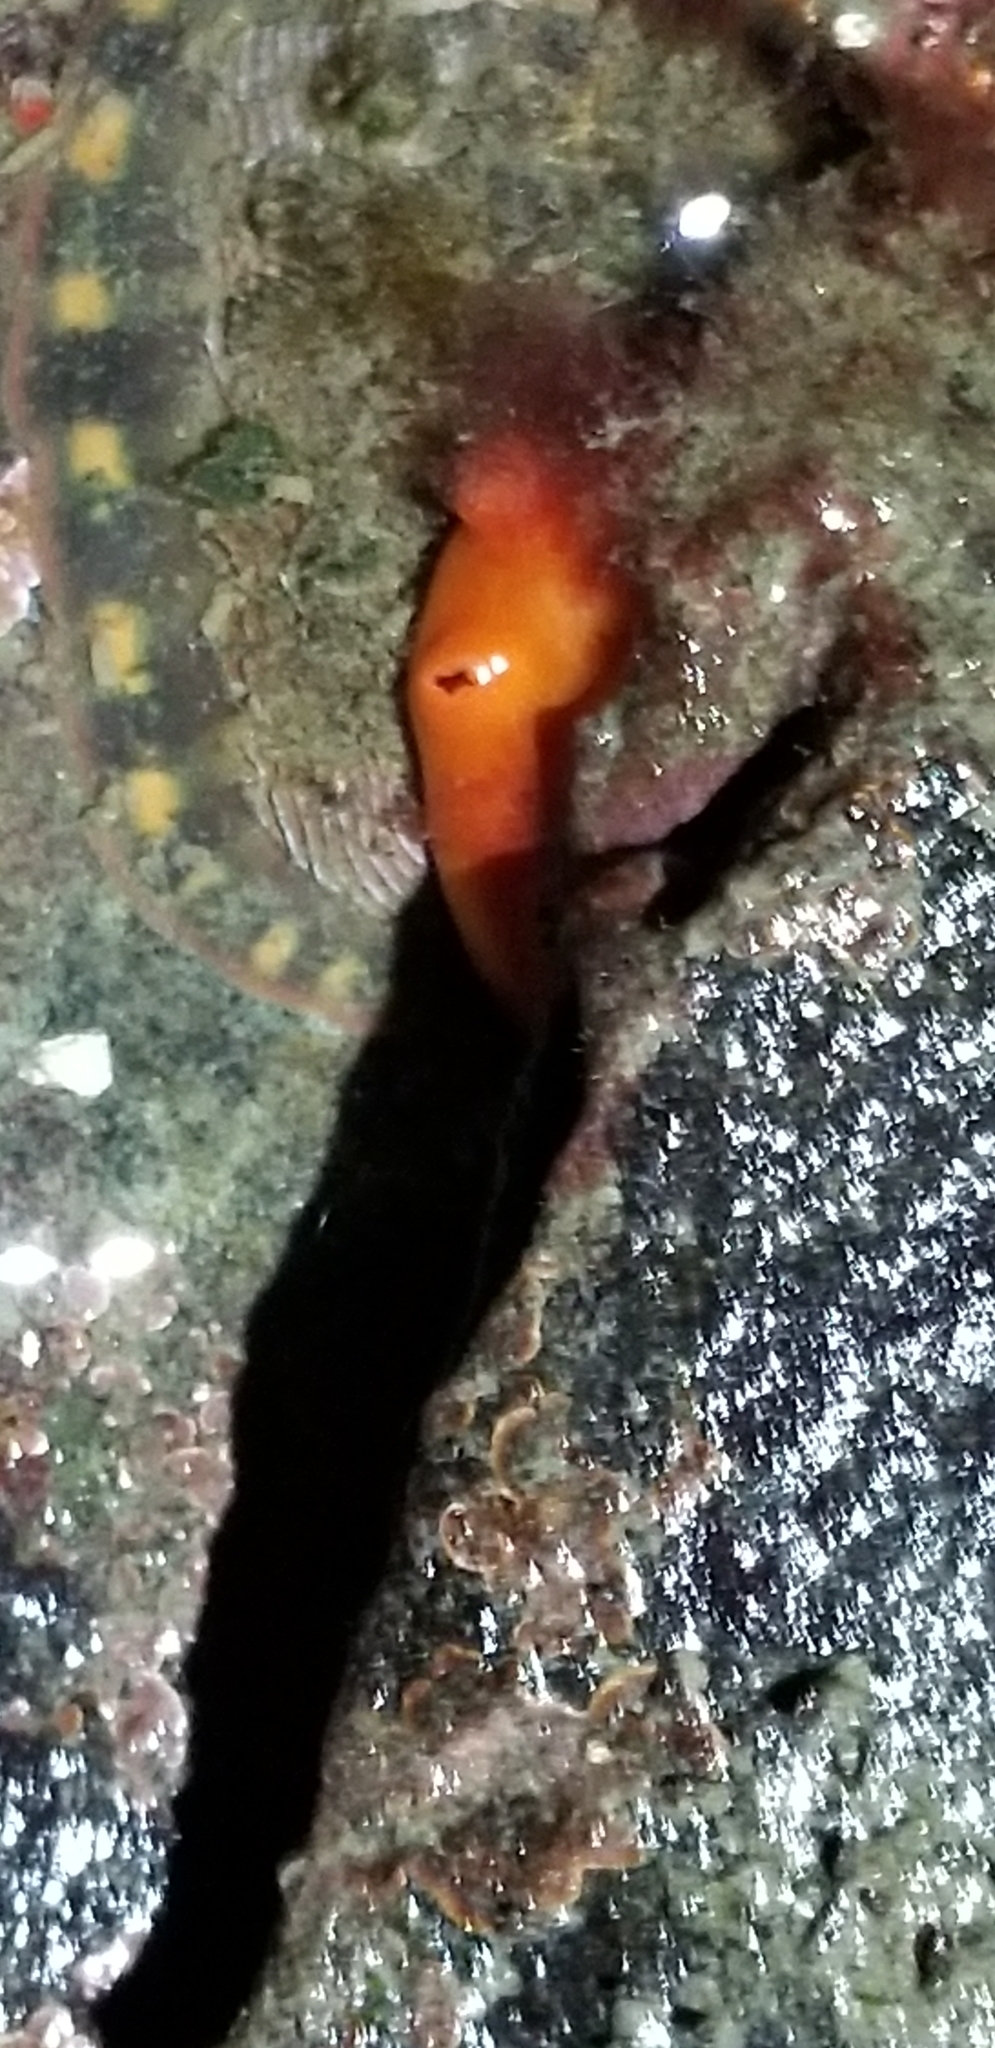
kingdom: Animalia
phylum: Chordata
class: Ascidiacea
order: Stolidobranchia
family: Styelidae
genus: Cnemidocarpa
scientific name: Cnemidocarpa finmarkiensis
